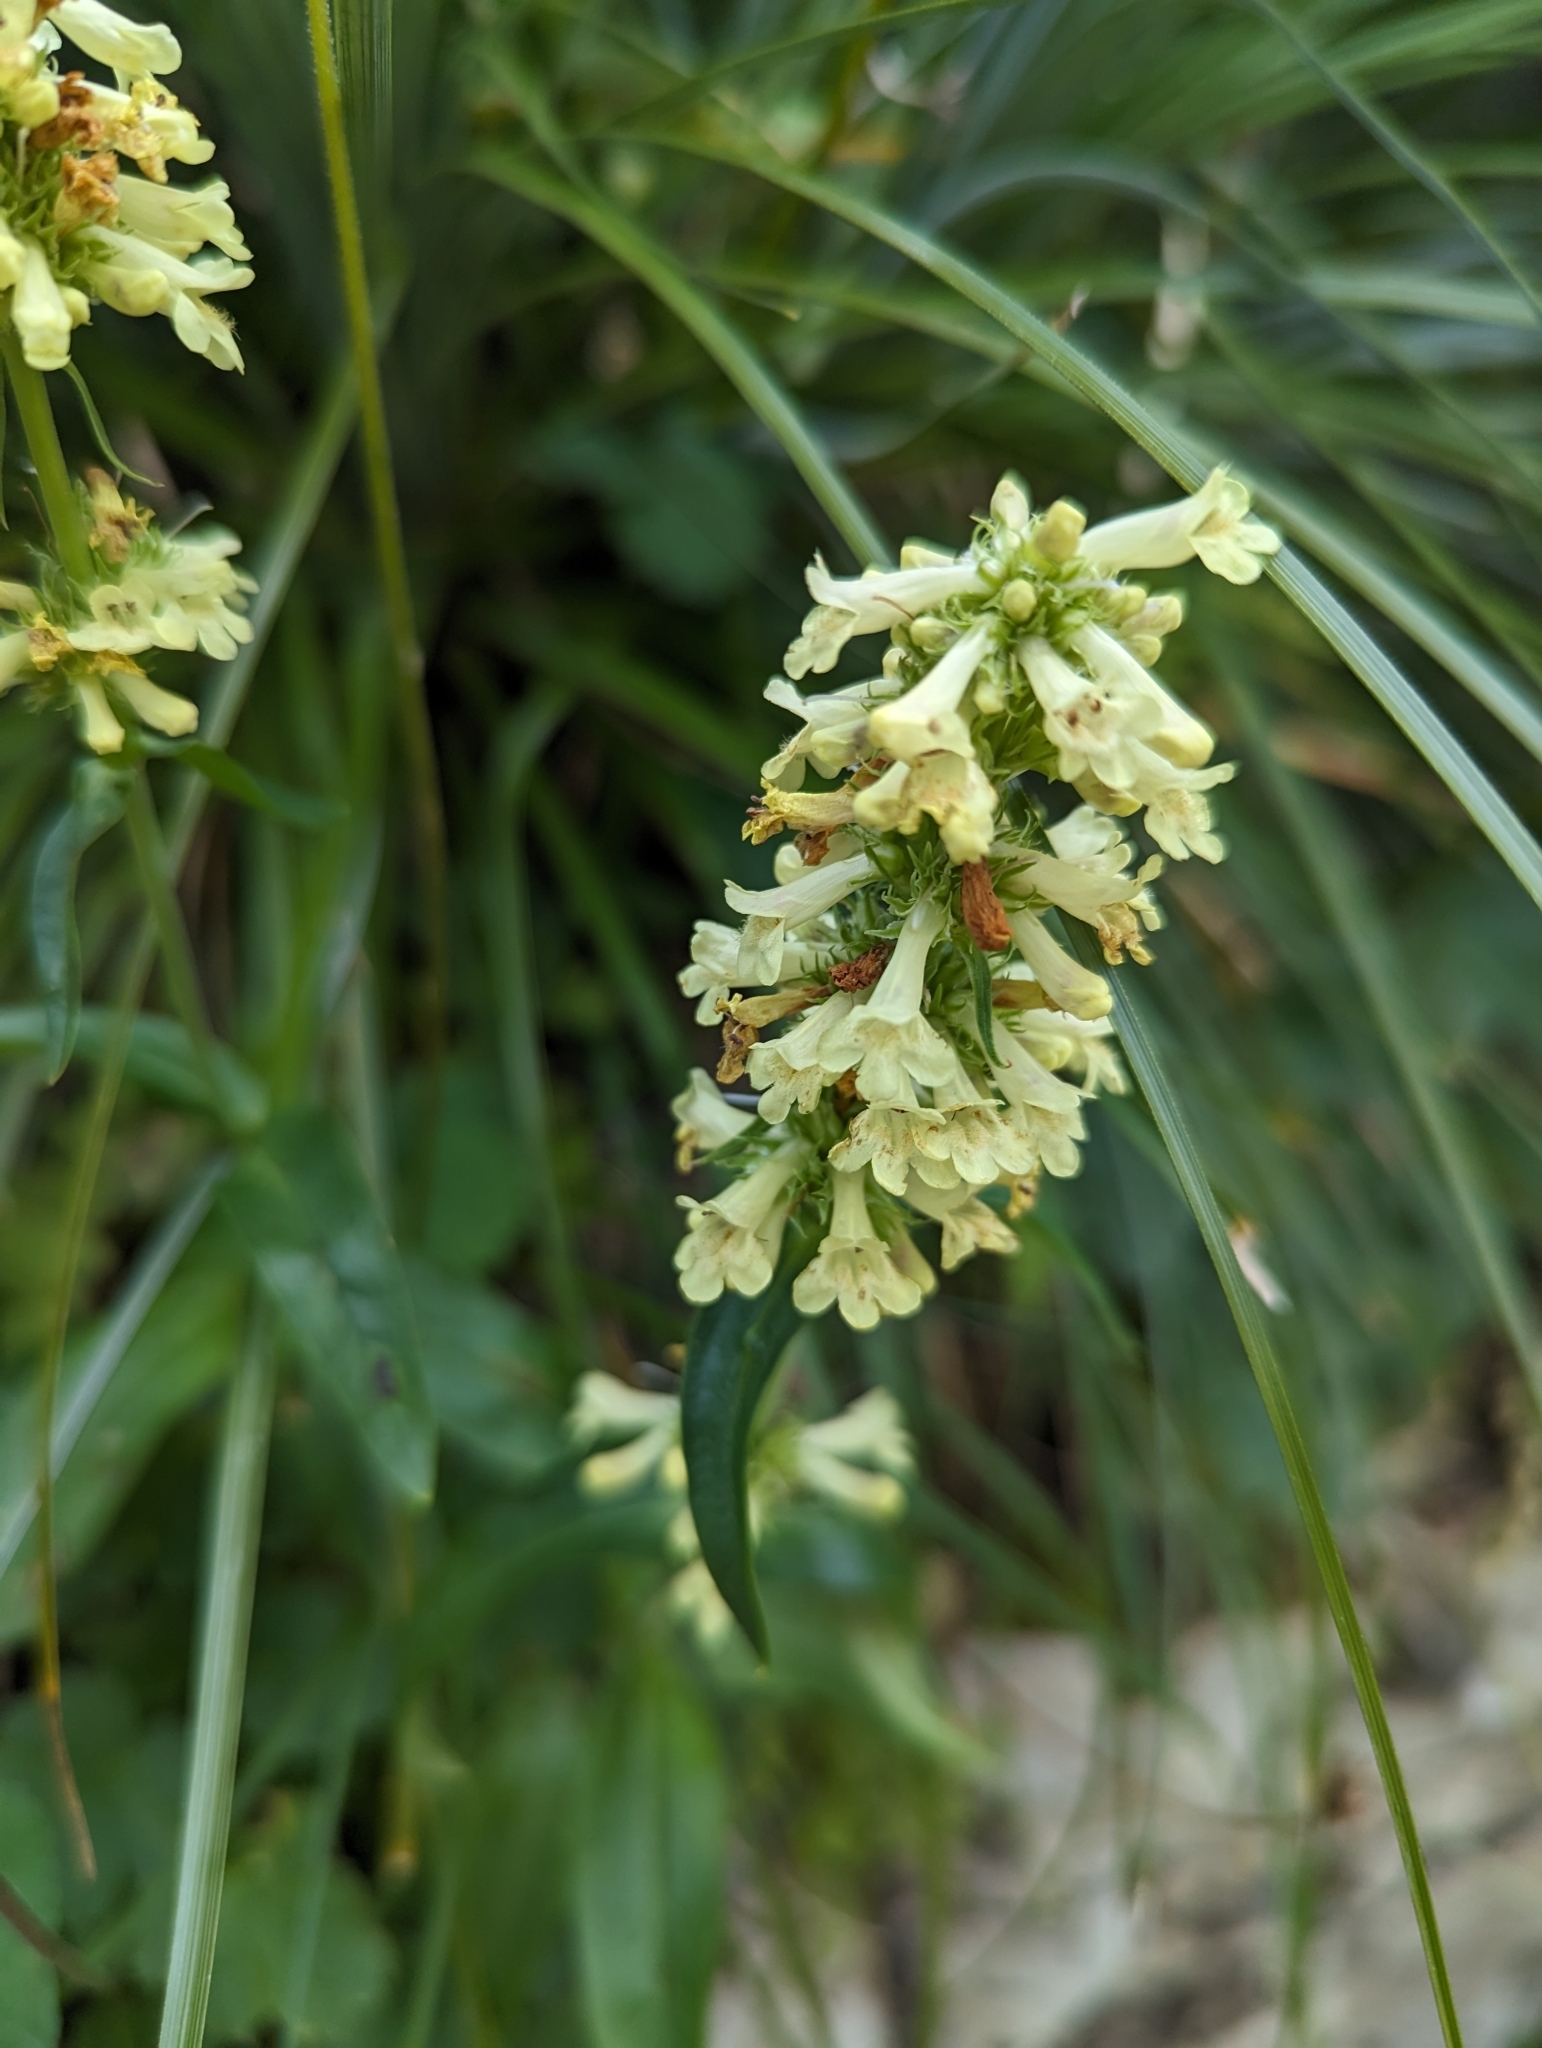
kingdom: Plantae
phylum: Tracheophyta
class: Magnoliopsida
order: Lamiales
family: Plantaginaceae
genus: Penstemon
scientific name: Penstemon confertus
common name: Lesser yellow beardtongue
